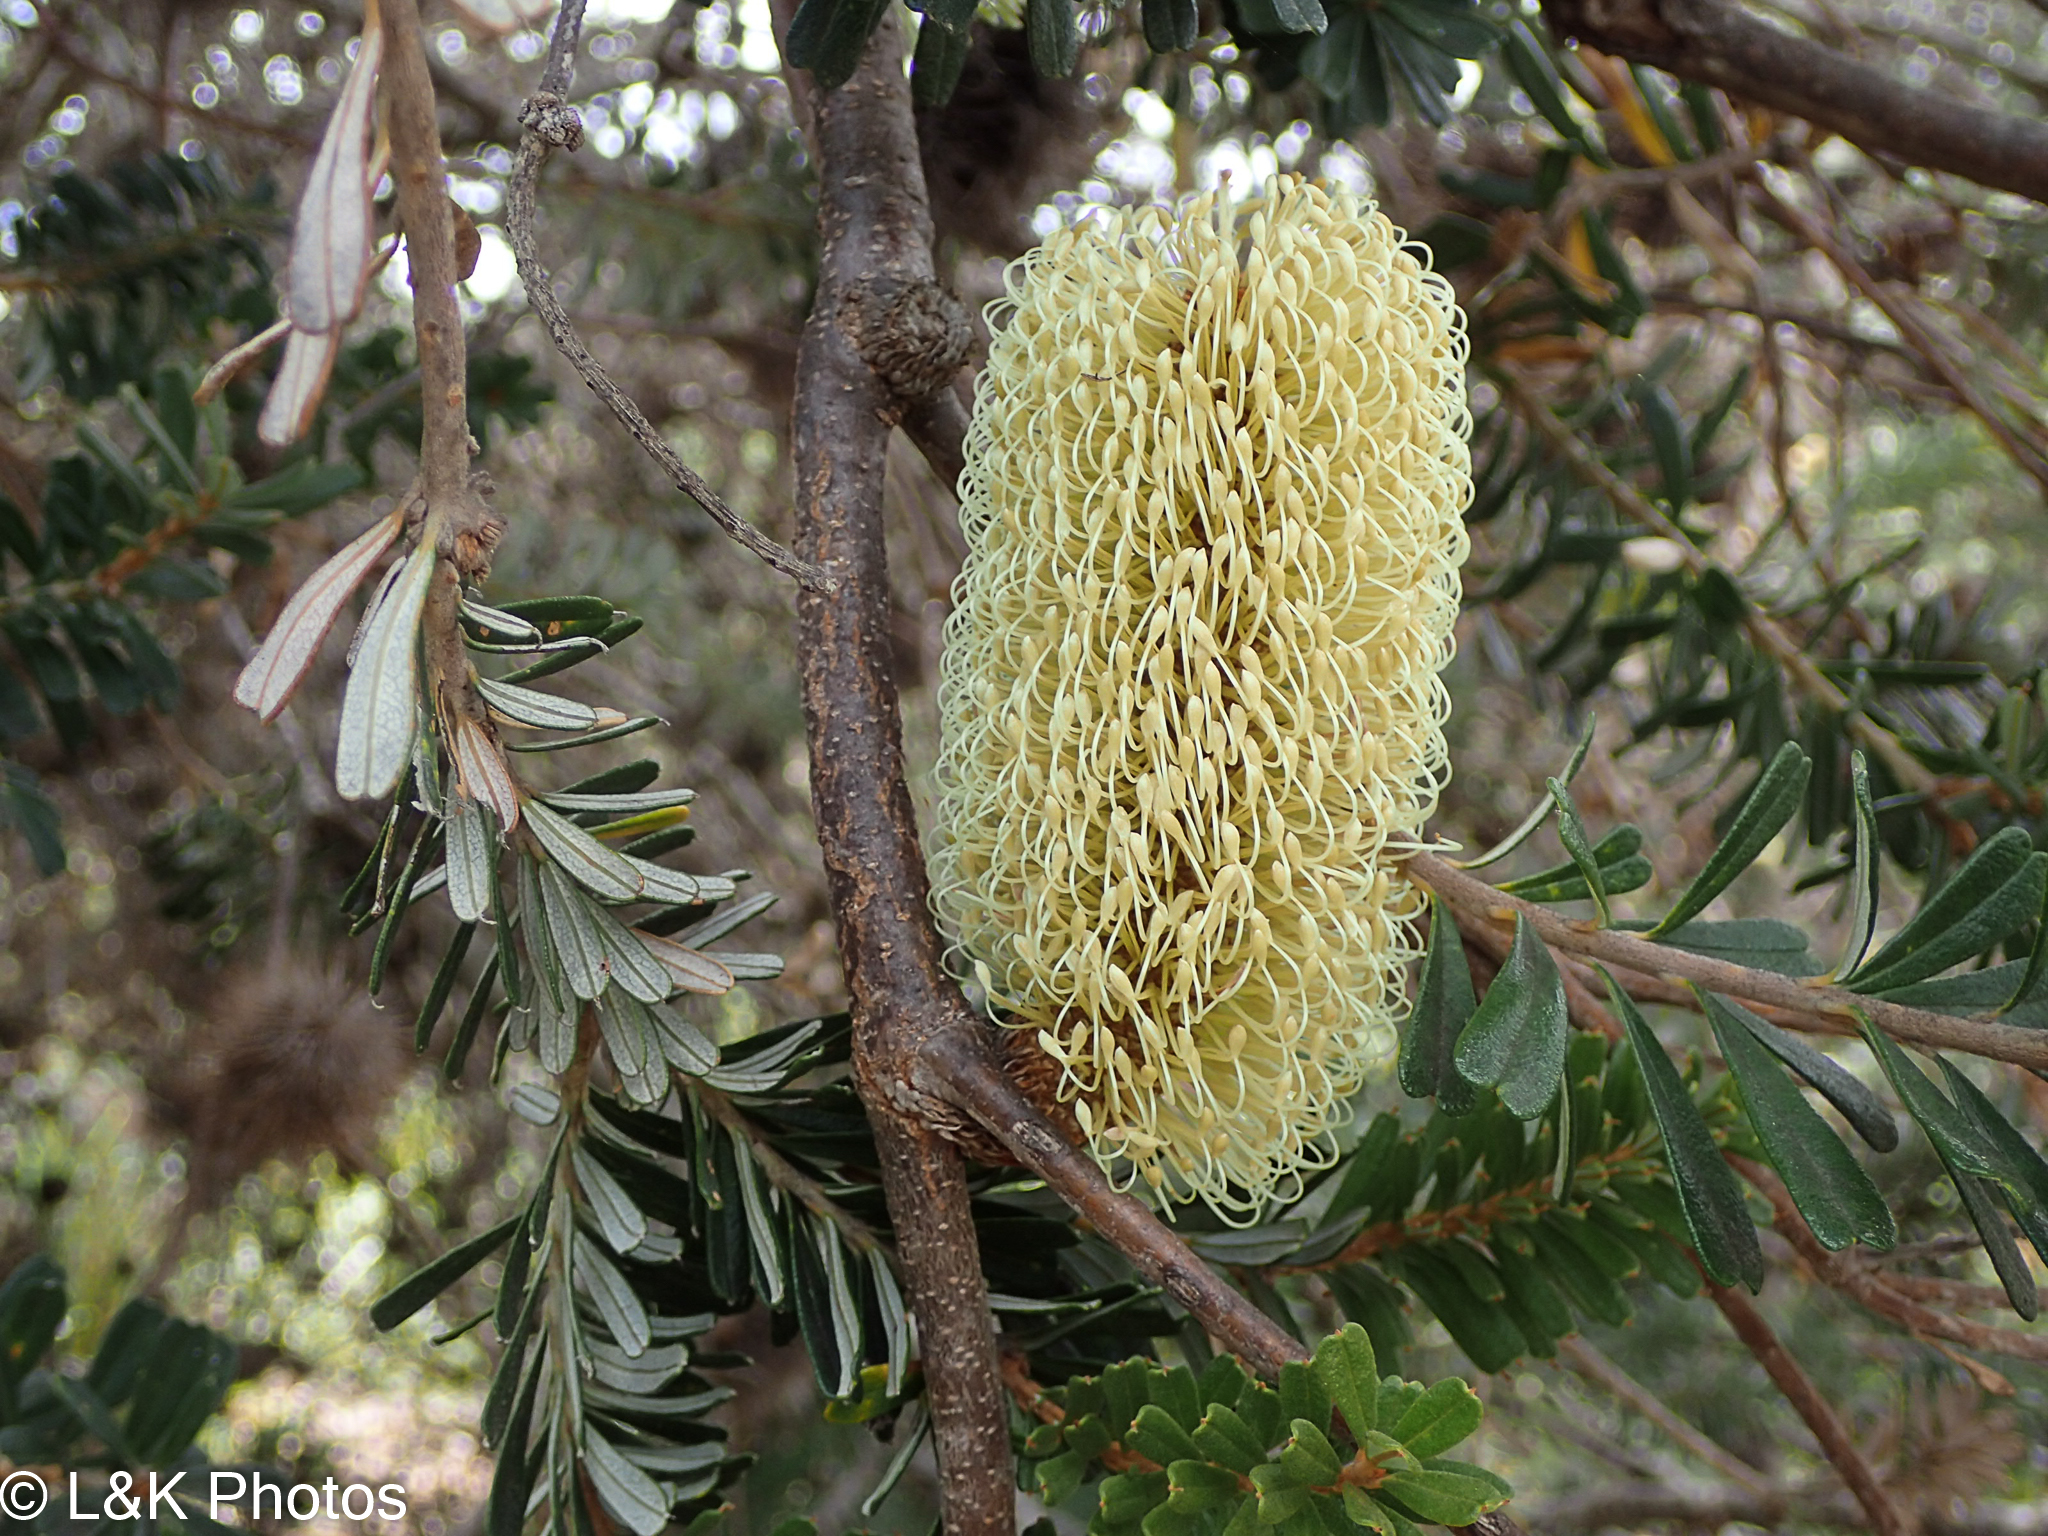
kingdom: Plantae
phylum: Tracheophyta
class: Magnoliopsida
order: Proteales
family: Proteaceae
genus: Banksia
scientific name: Banksia marginata
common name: Silver banksia
